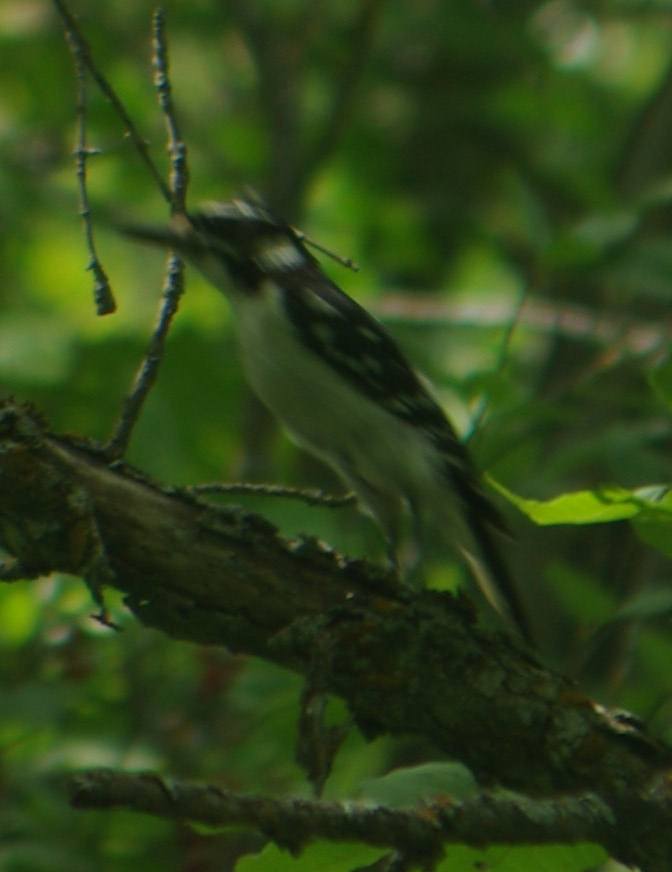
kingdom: Animalia
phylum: Chordata
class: Aves
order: Piciformes
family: Picidae
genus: Leuconotopicus
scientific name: Leuconotopicus villosus
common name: Hairy woodpecker
